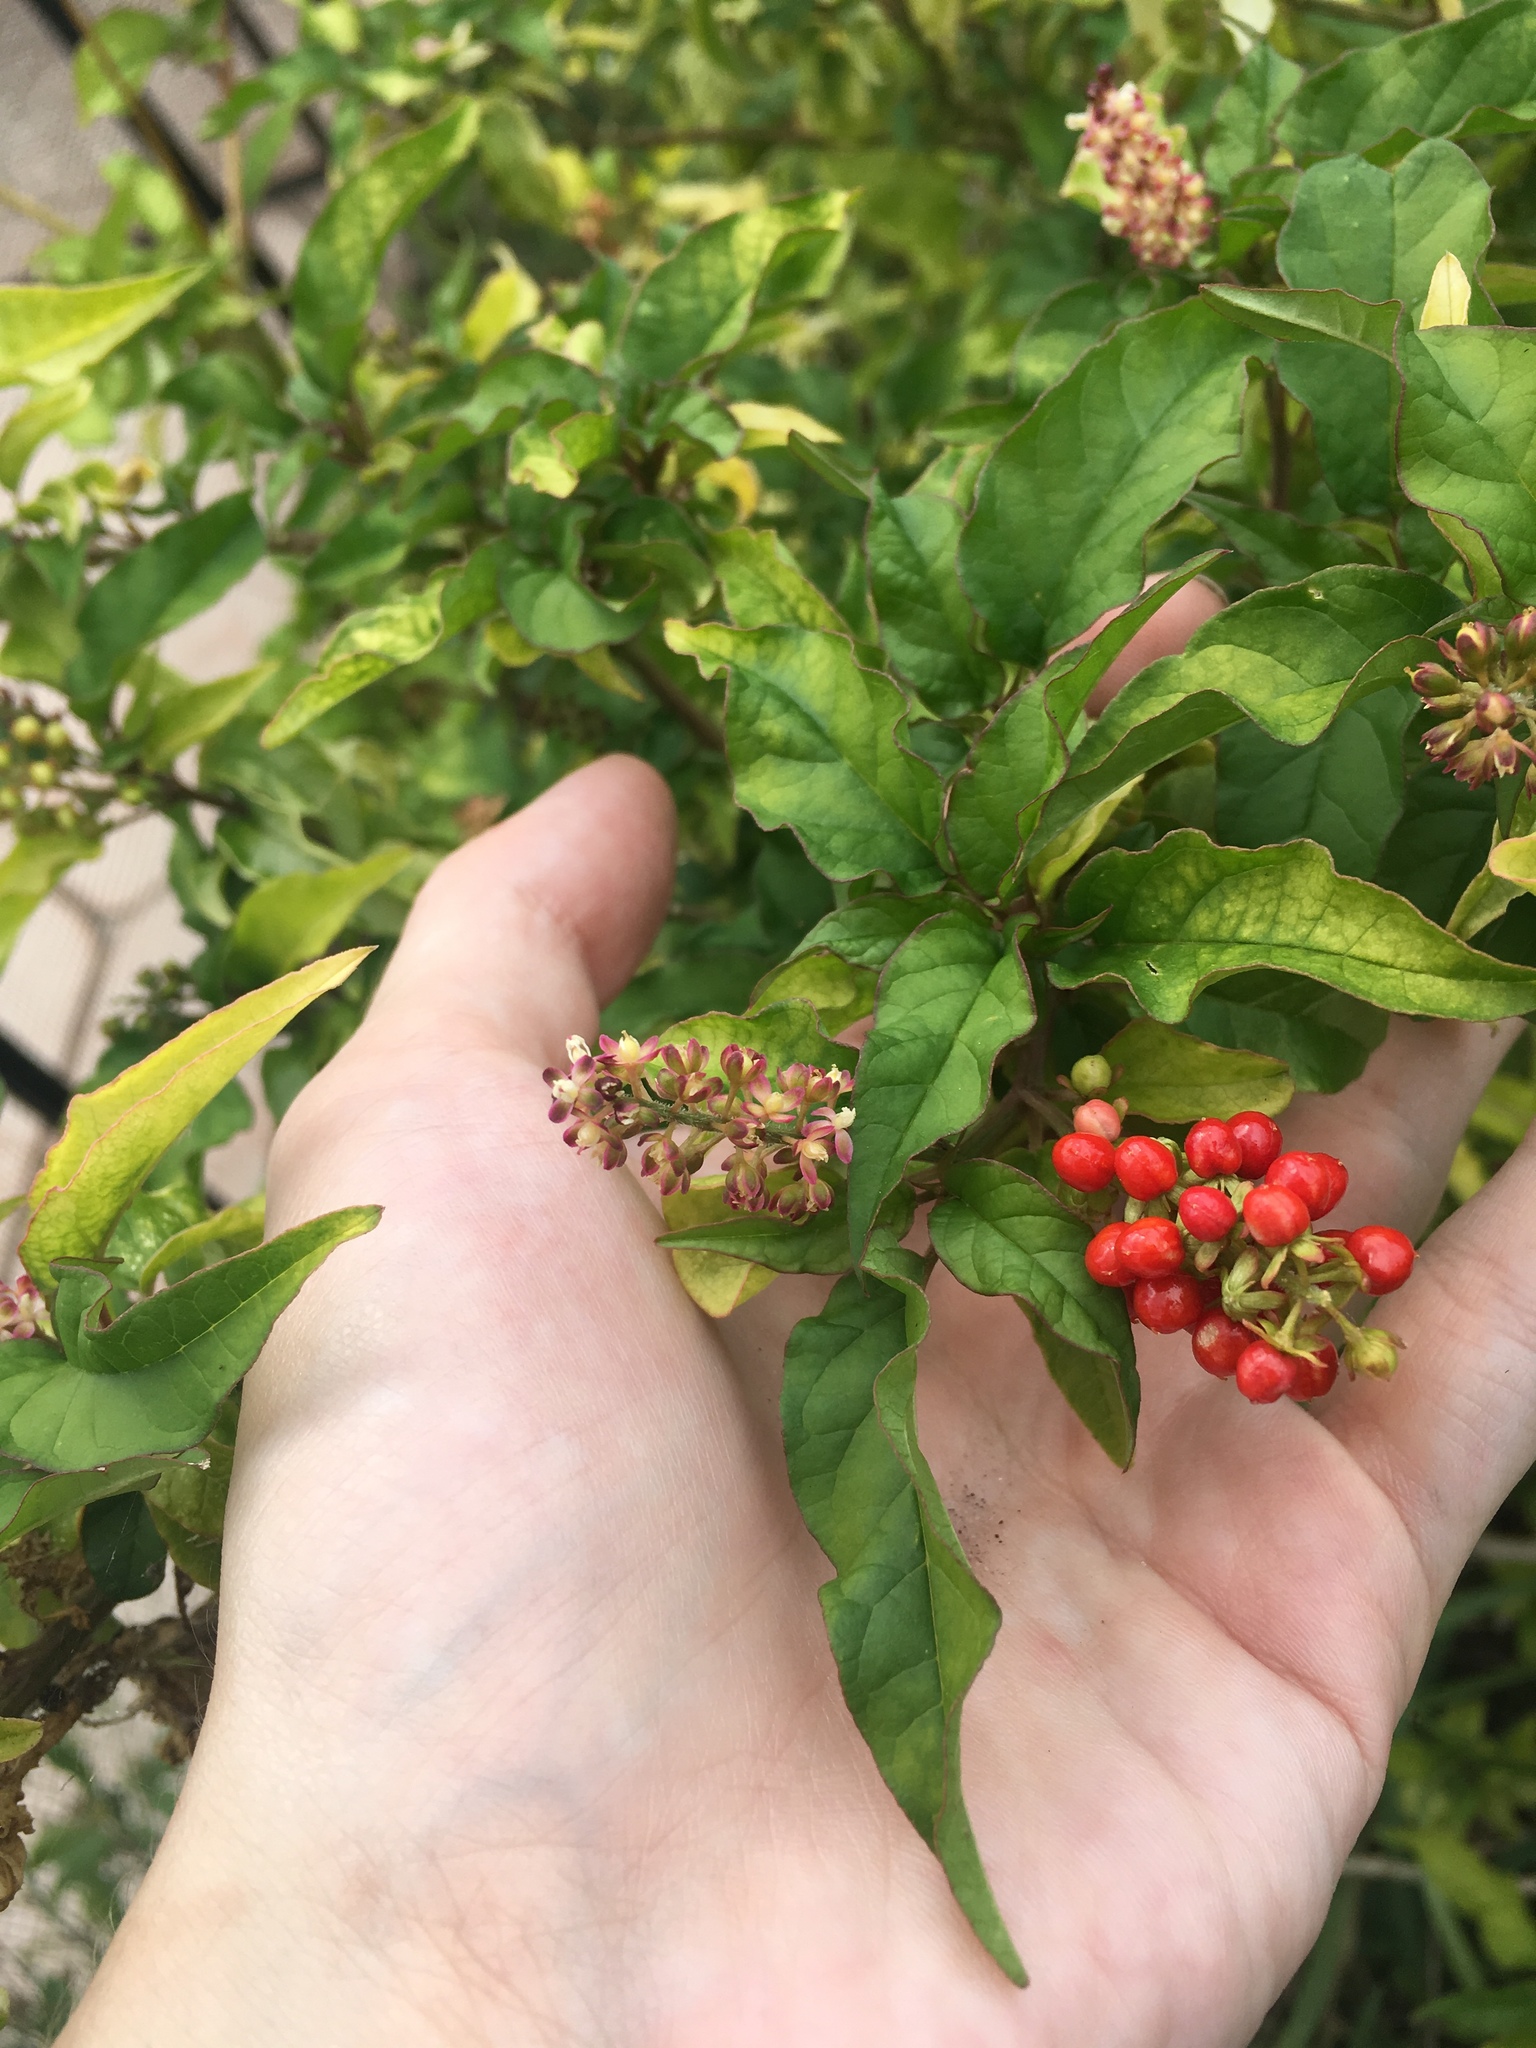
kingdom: Plantae
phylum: Tracheophyta
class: Magnoliopsida
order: Caryophyllales
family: Phytolaccaceae
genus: Rivina
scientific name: Rivina humilis
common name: Rougeplant
